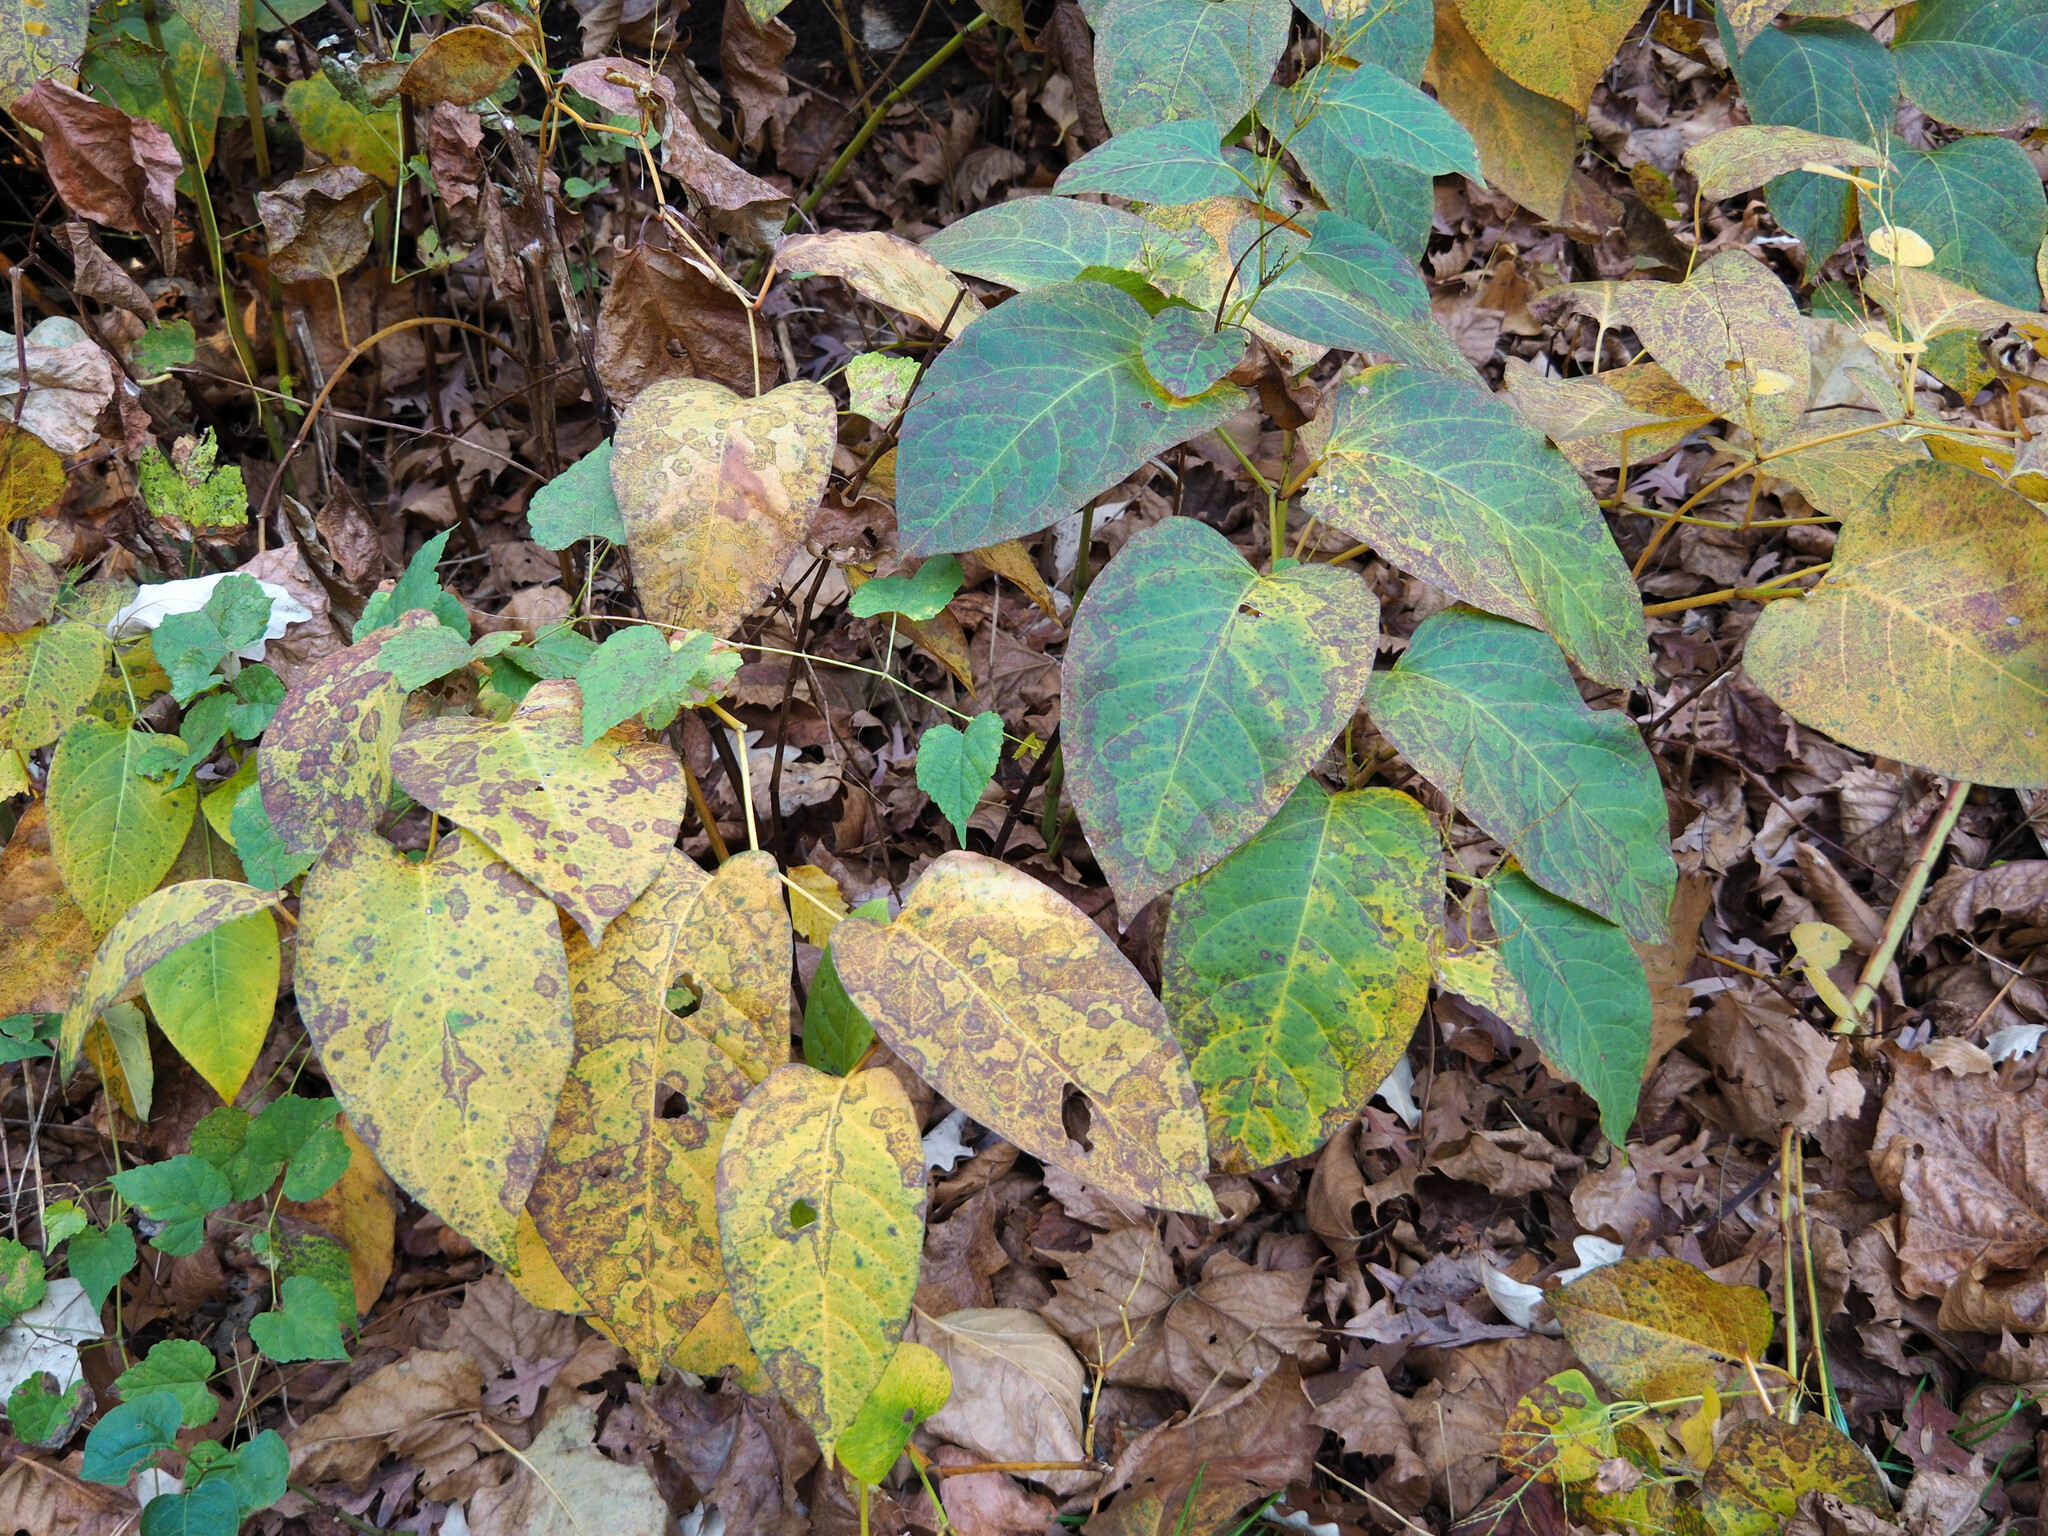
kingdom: Plantae
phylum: Tracheophyta
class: Magnoliopsida
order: Caryophyllales
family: Polygonaceae
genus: Reynoutria
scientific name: Reynoutria japonica
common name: Japanese knotweed
